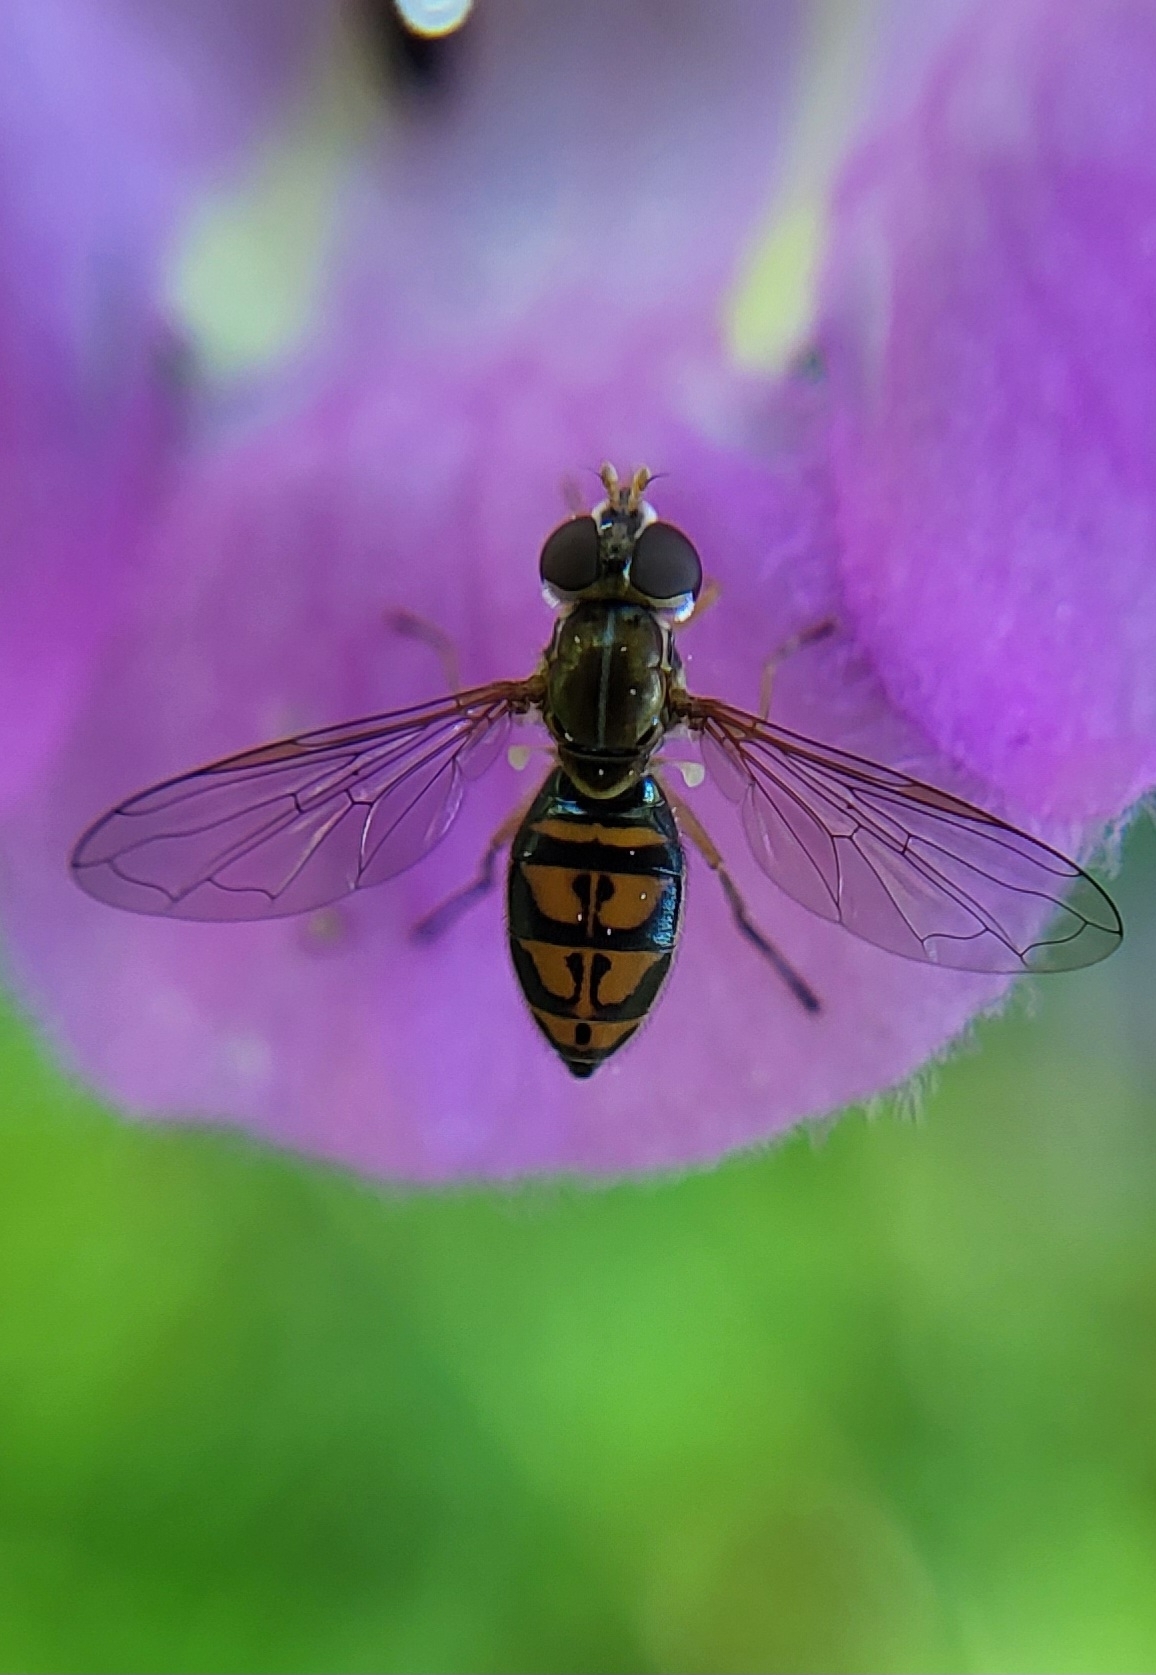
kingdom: Animalia
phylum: Arthropoda
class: Insecta
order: Diptera
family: Syrphidae
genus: Toxomerus
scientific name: Toxomerus marginatus
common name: Syrphid fly
